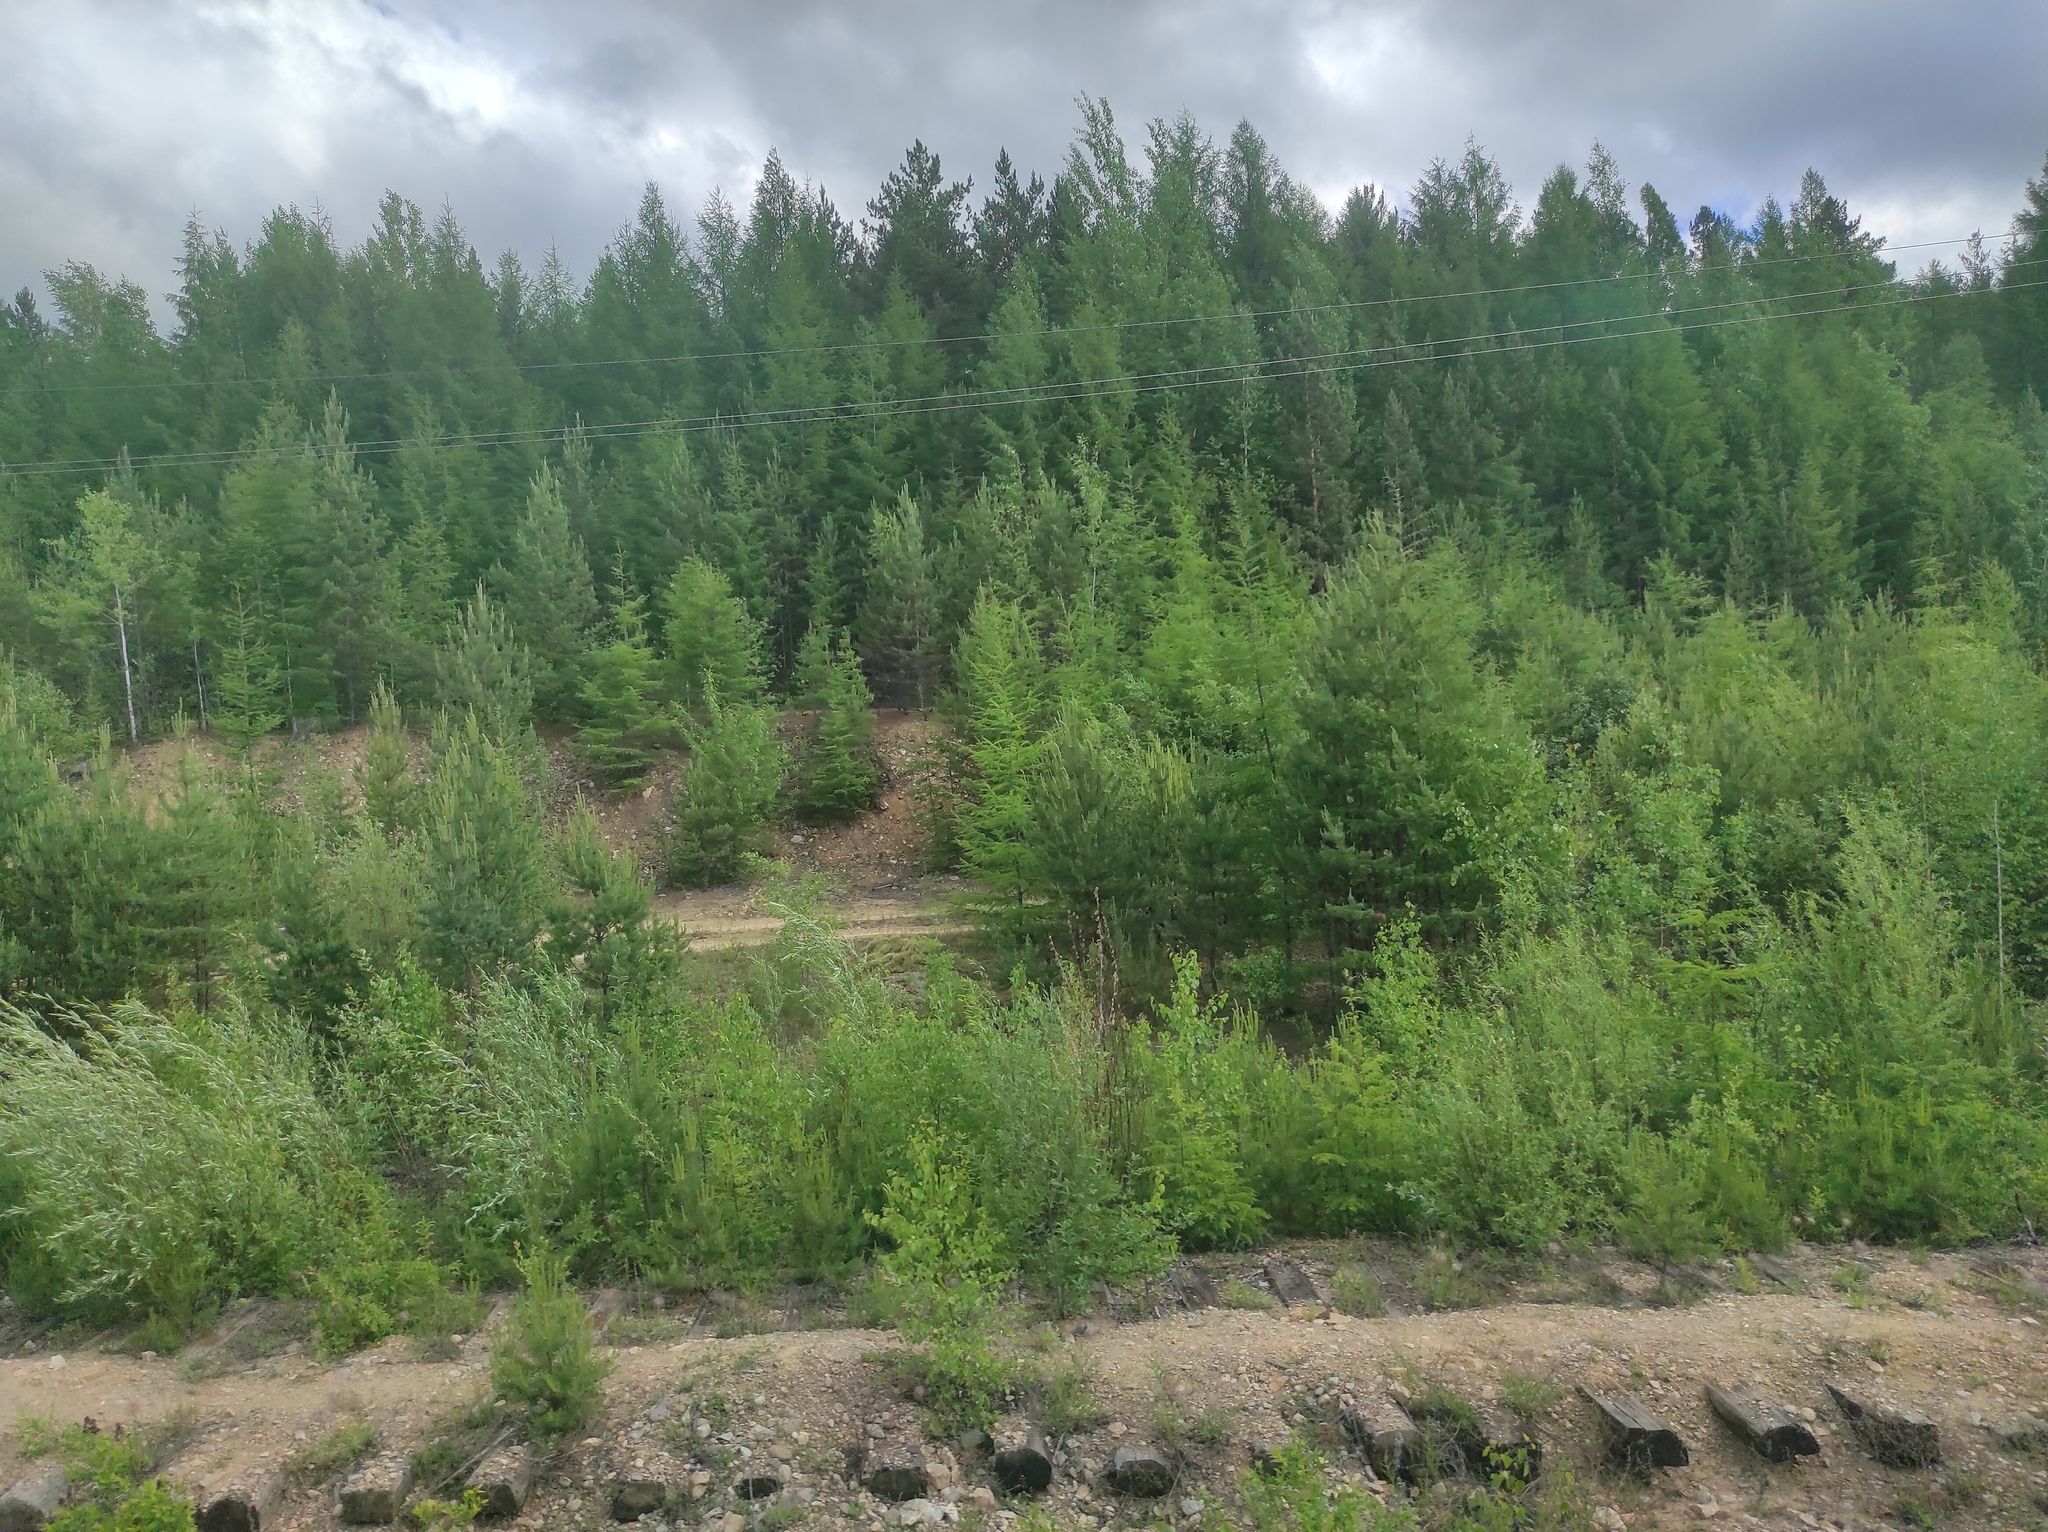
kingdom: Plantae
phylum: Tracheophyta
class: Pinopsida
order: Pinales
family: Pinaceae
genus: Larix
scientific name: Larix gmelinii
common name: Dahurian larch
